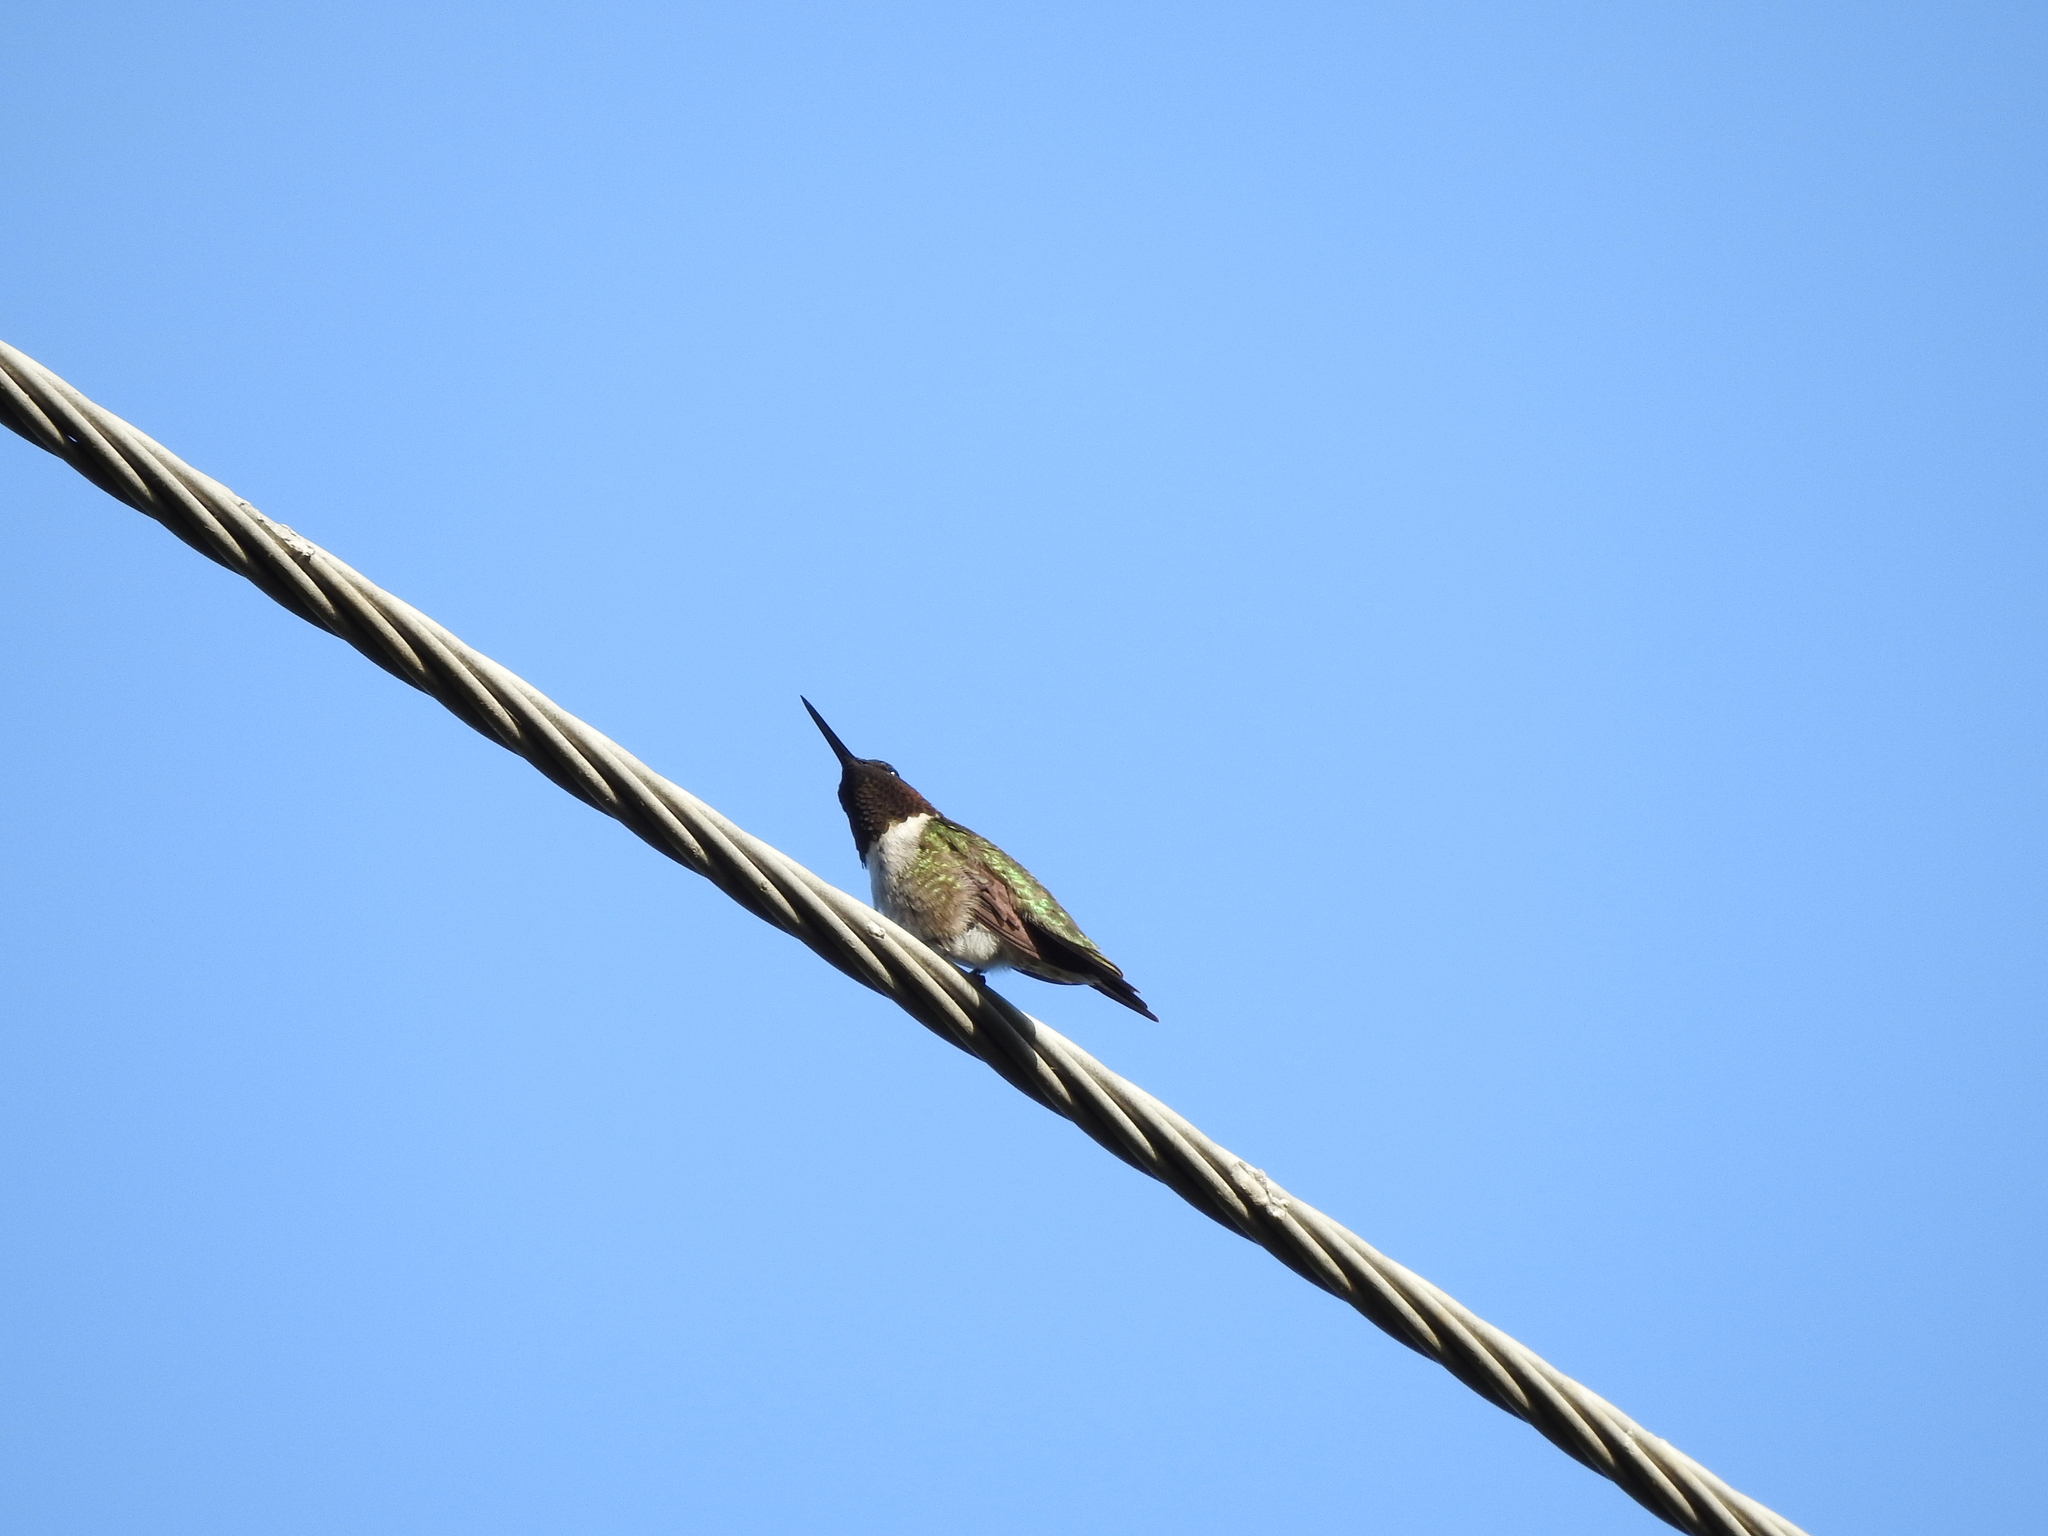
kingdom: Animalia
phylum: Chordata
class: Aves
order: Apodiformes
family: Trochilidae
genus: Archilochus
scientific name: Archilochus colubris
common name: Ruby-throated hummingbird
